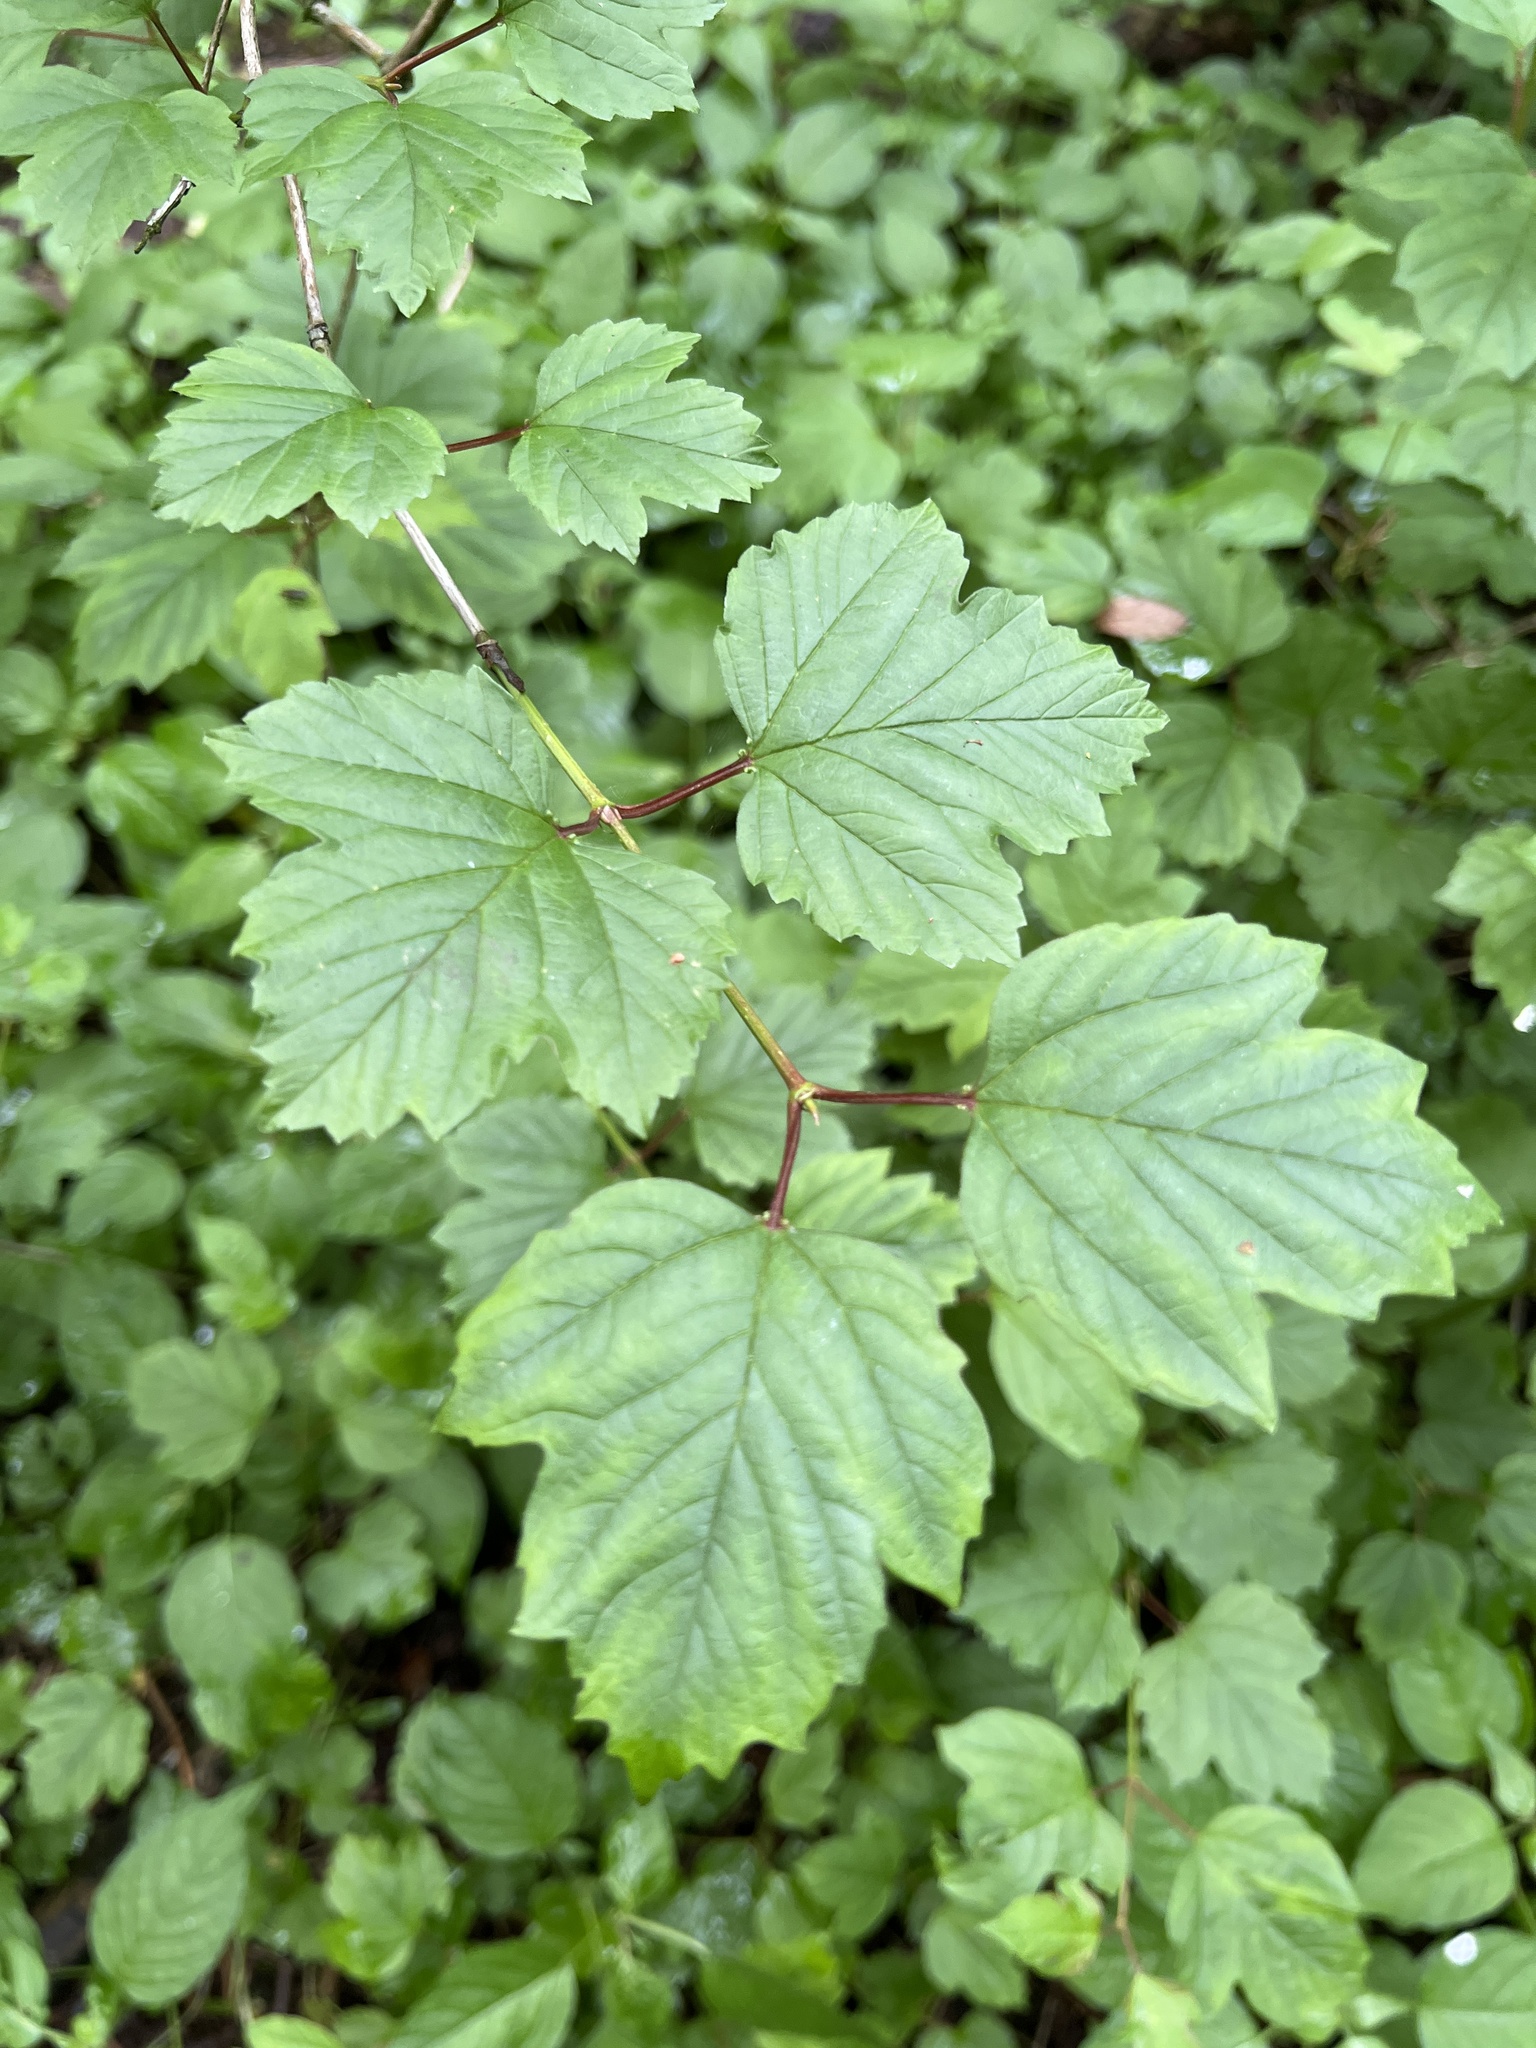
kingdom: Plantae
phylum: Tracheophyta
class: Magnoliopsida
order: Dipsacales
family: Viburnaceae
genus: Viburnum
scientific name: Viburnum opulus
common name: Guelder-rose
